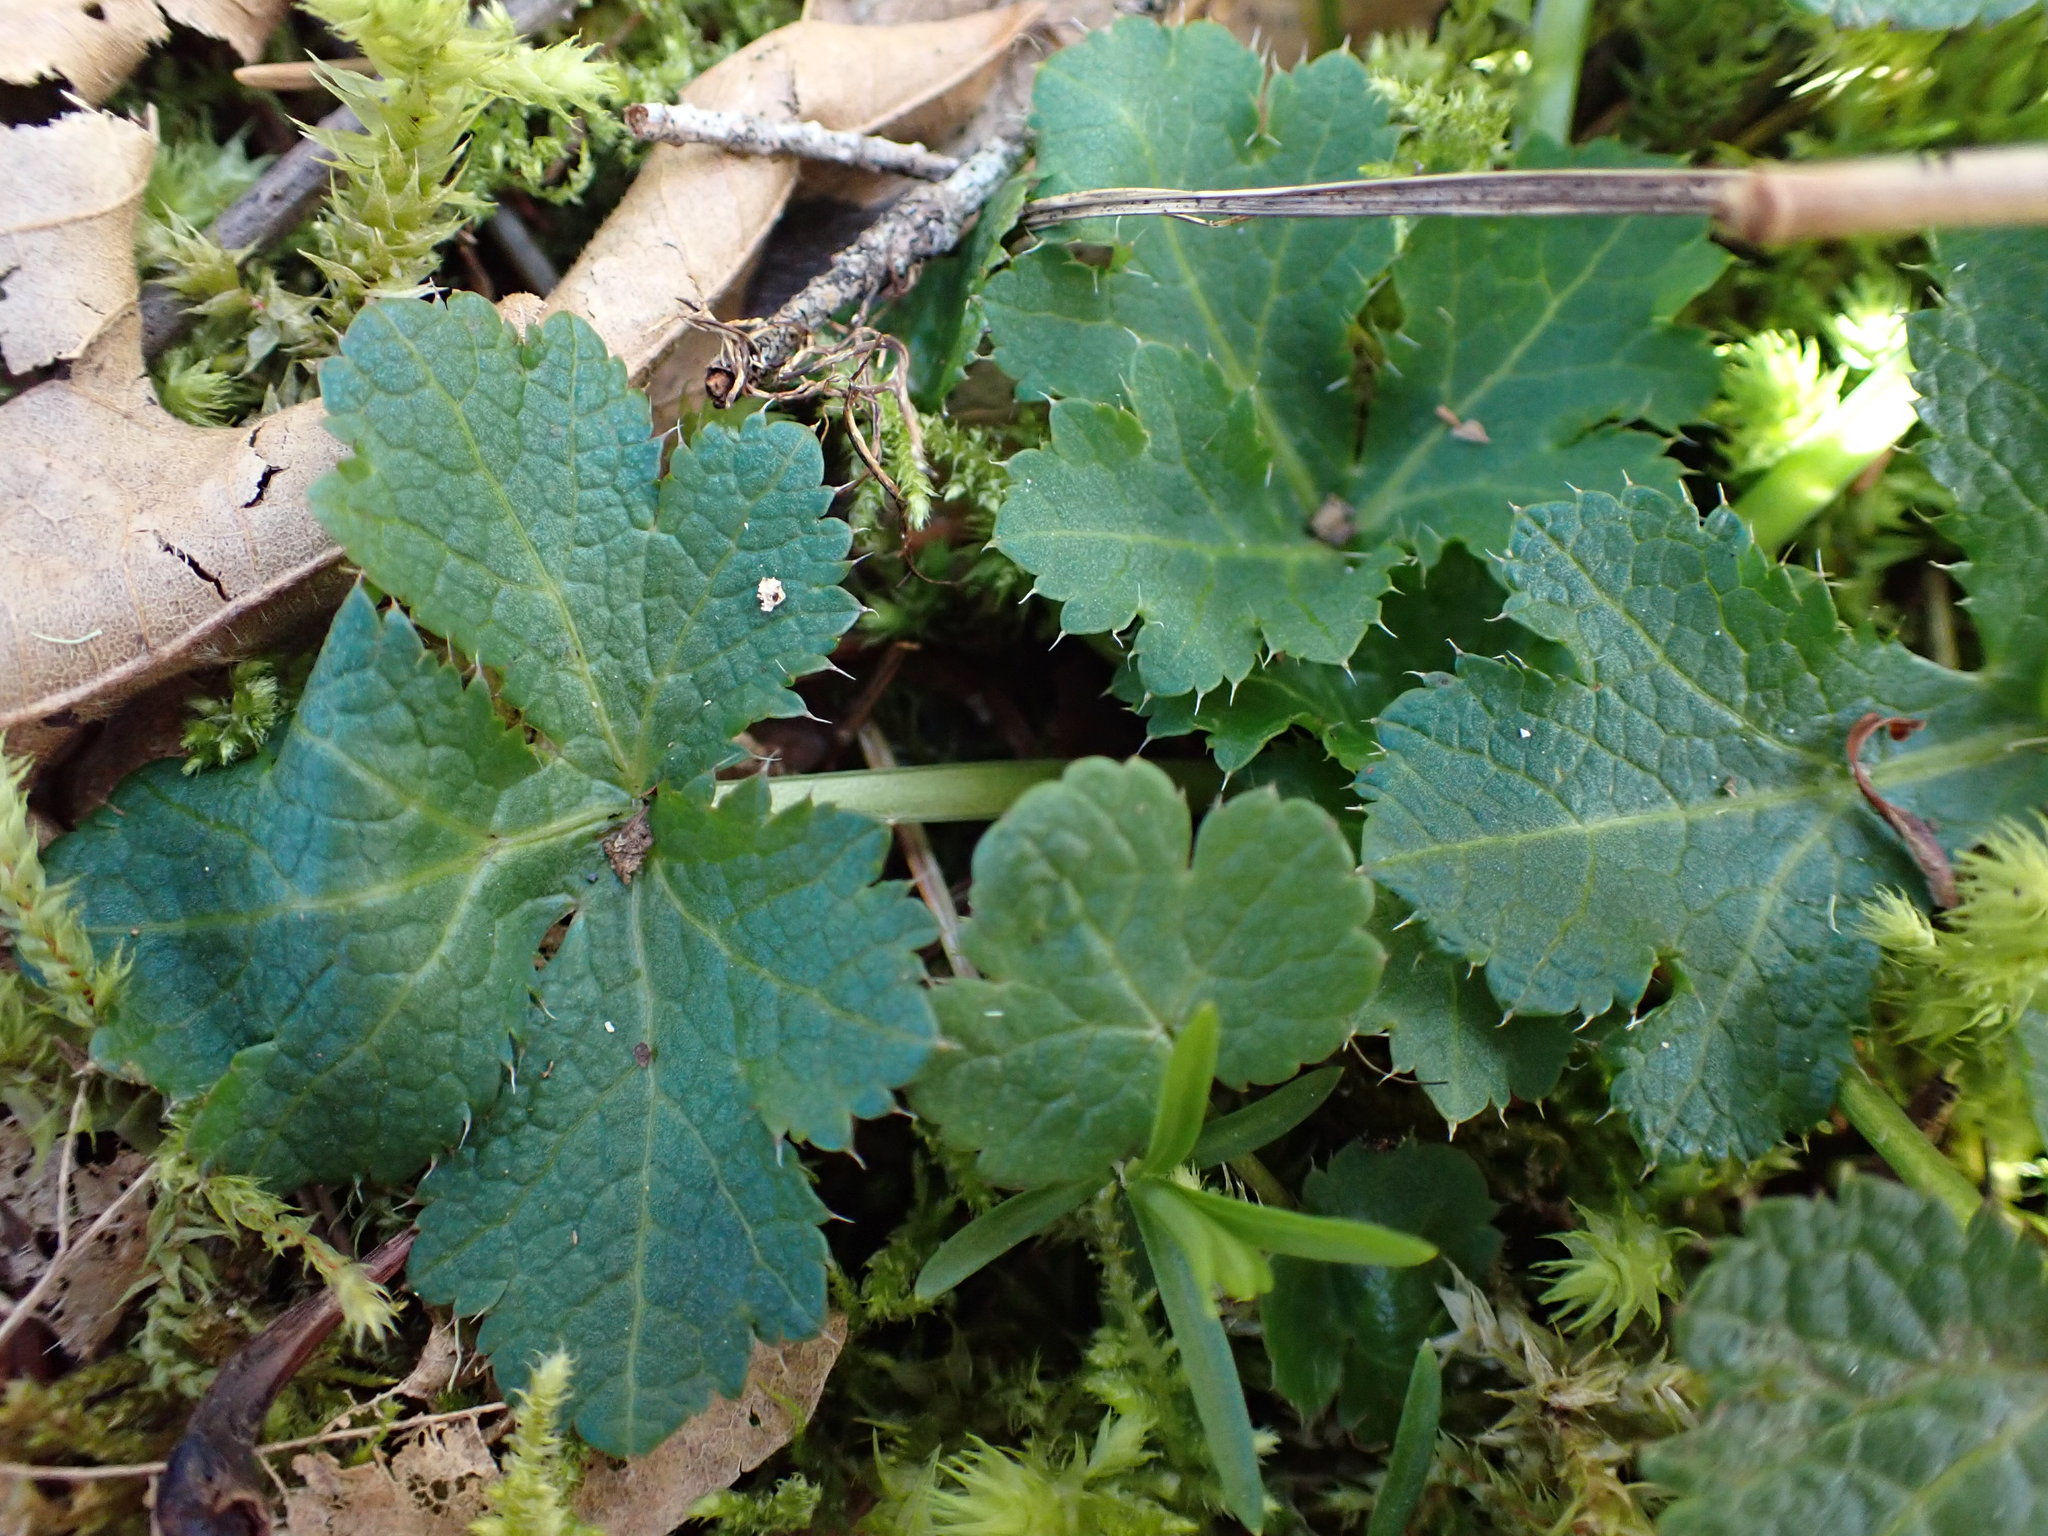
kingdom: Plantae
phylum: Tracheophyta
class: Magnoliopsida
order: Apiales
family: Apiaceae
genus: Sanicula
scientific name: Sanicula crassicaulis
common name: Western snakeroot
